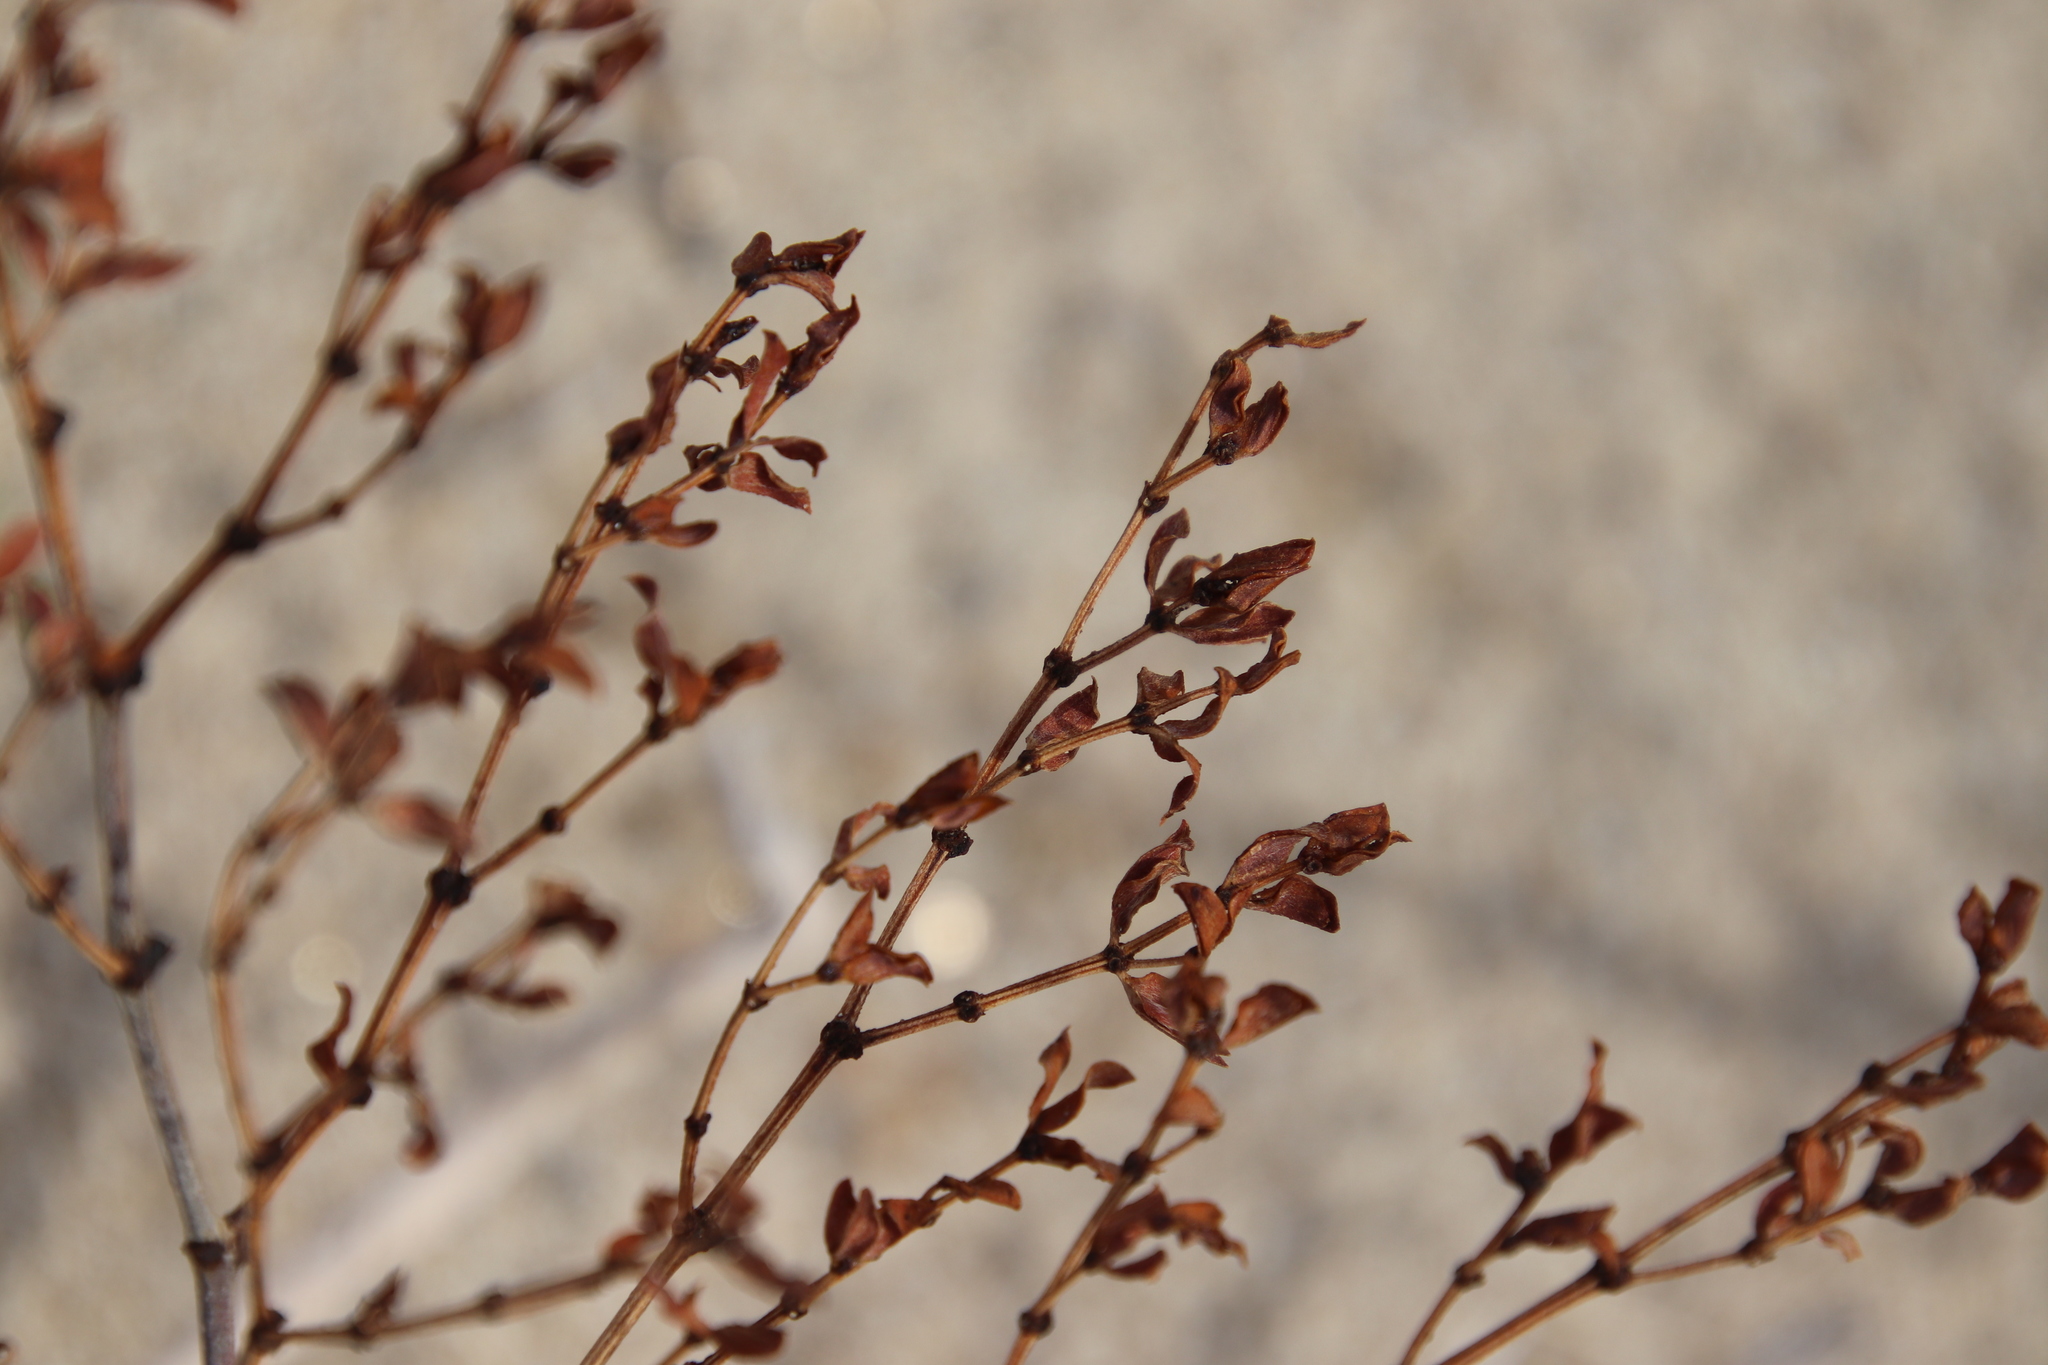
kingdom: Plantae
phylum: Tracheophyta
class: Magnoliopsida
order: Zygophyllales
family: Zygophyllaceae
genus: Larrea
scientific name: Larrea tridentata
